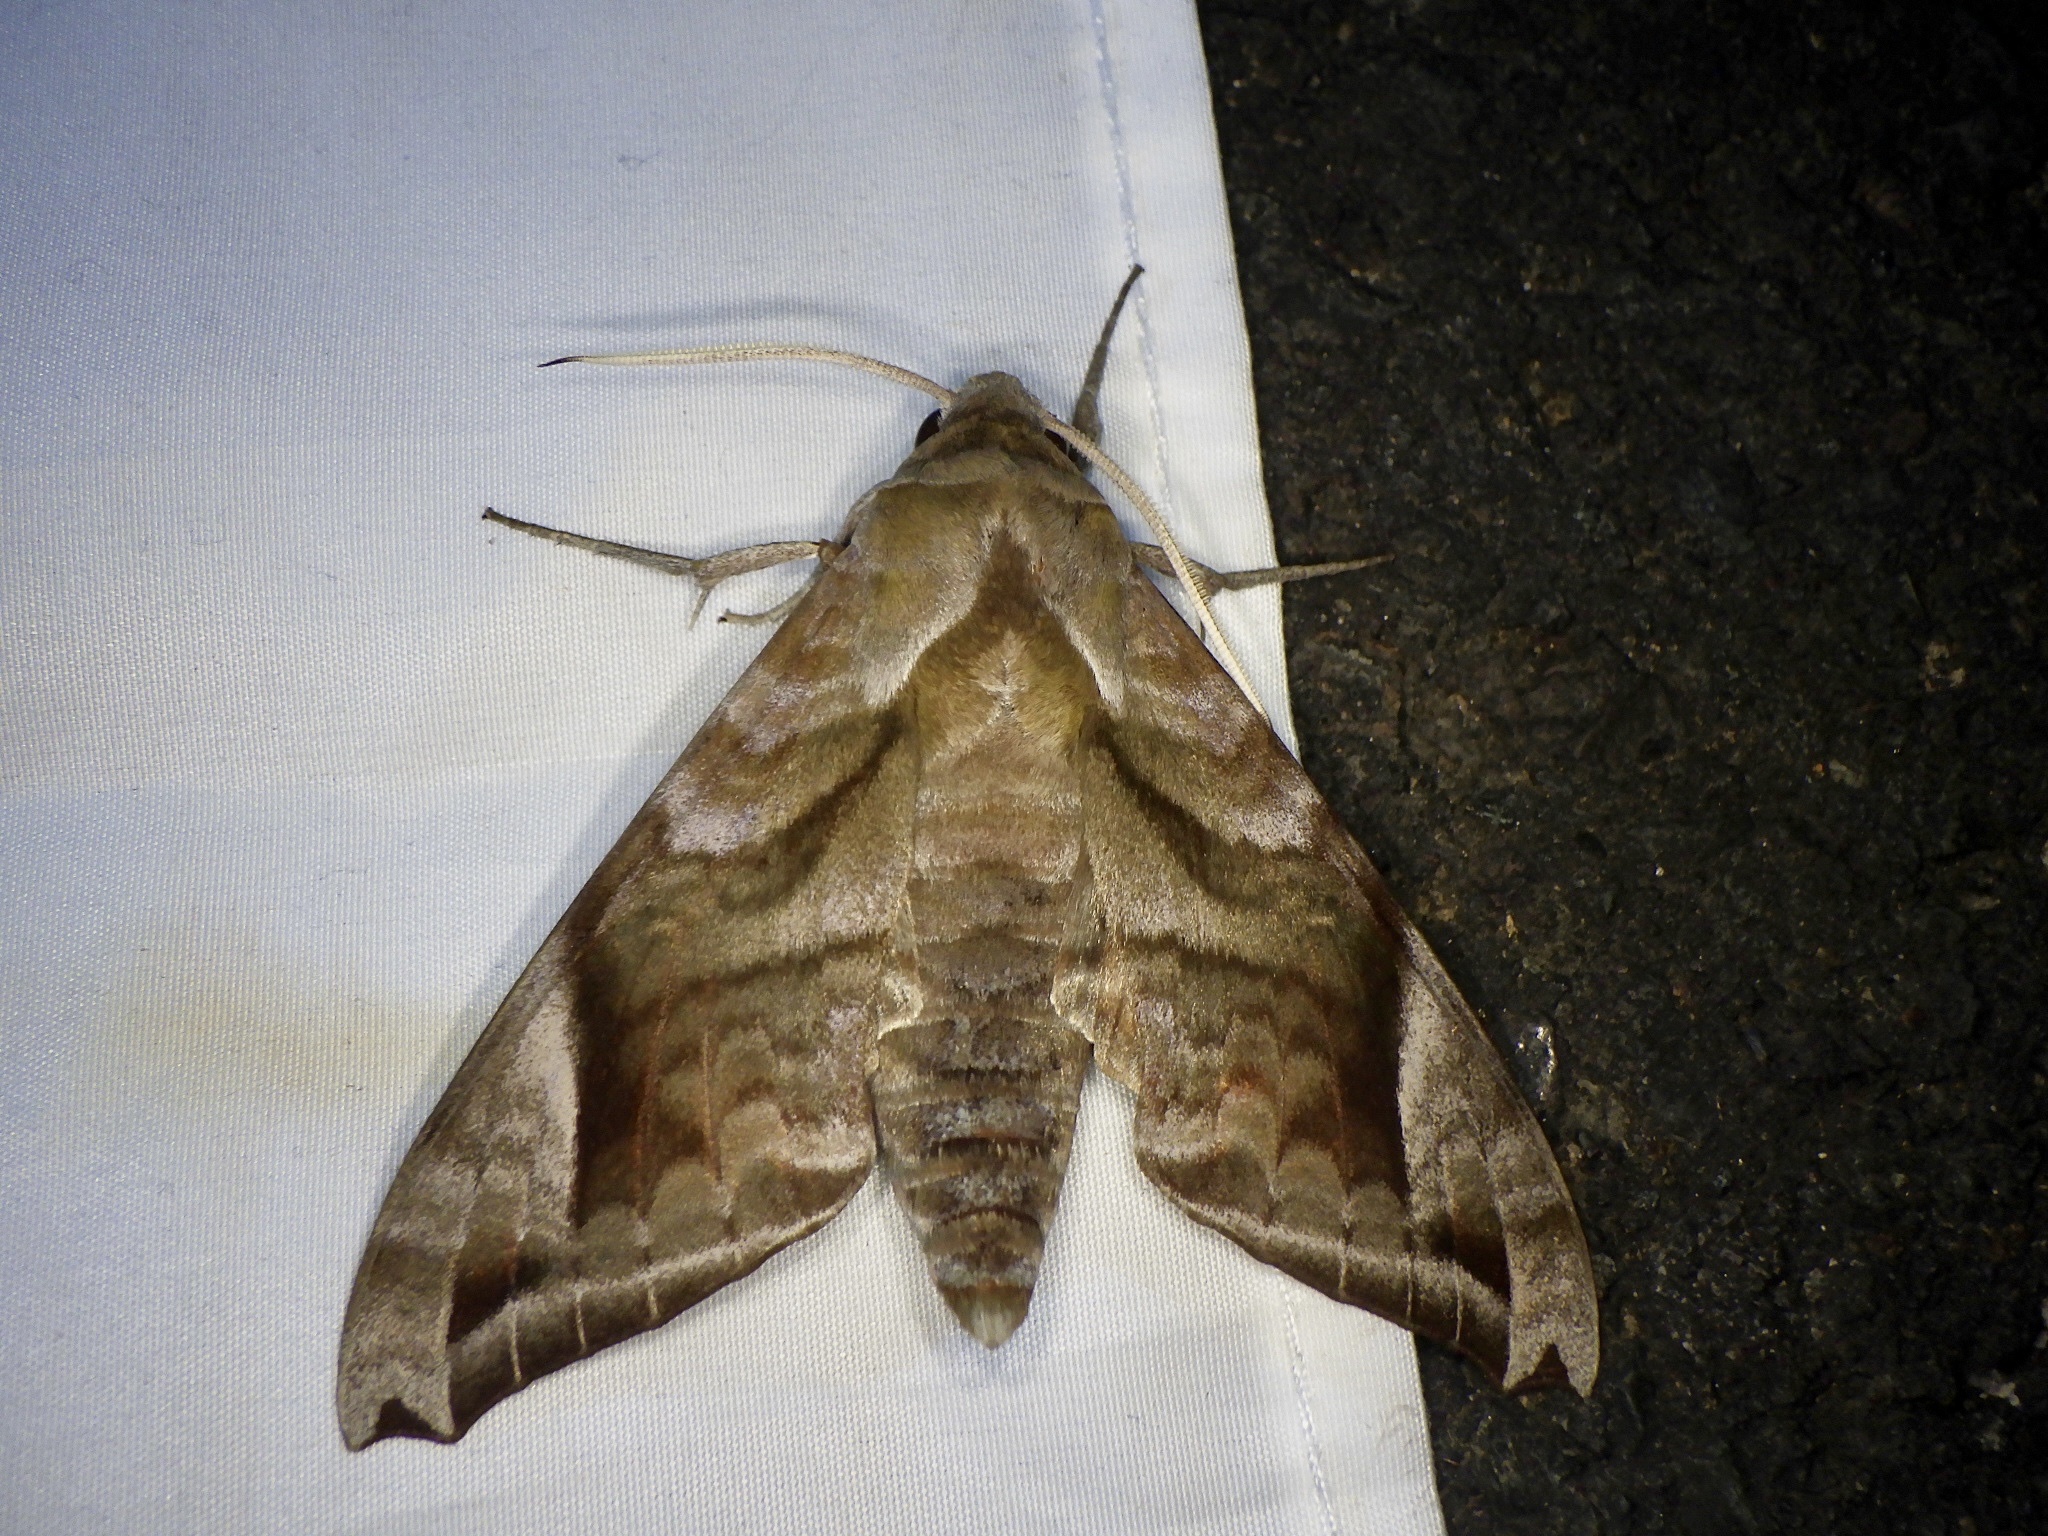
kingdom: Animalia
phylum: Arthropoda
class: Insecta
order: Lepidoptera
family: Sphingidae
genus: Acosmeryx
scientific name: Acosmeryx naga
